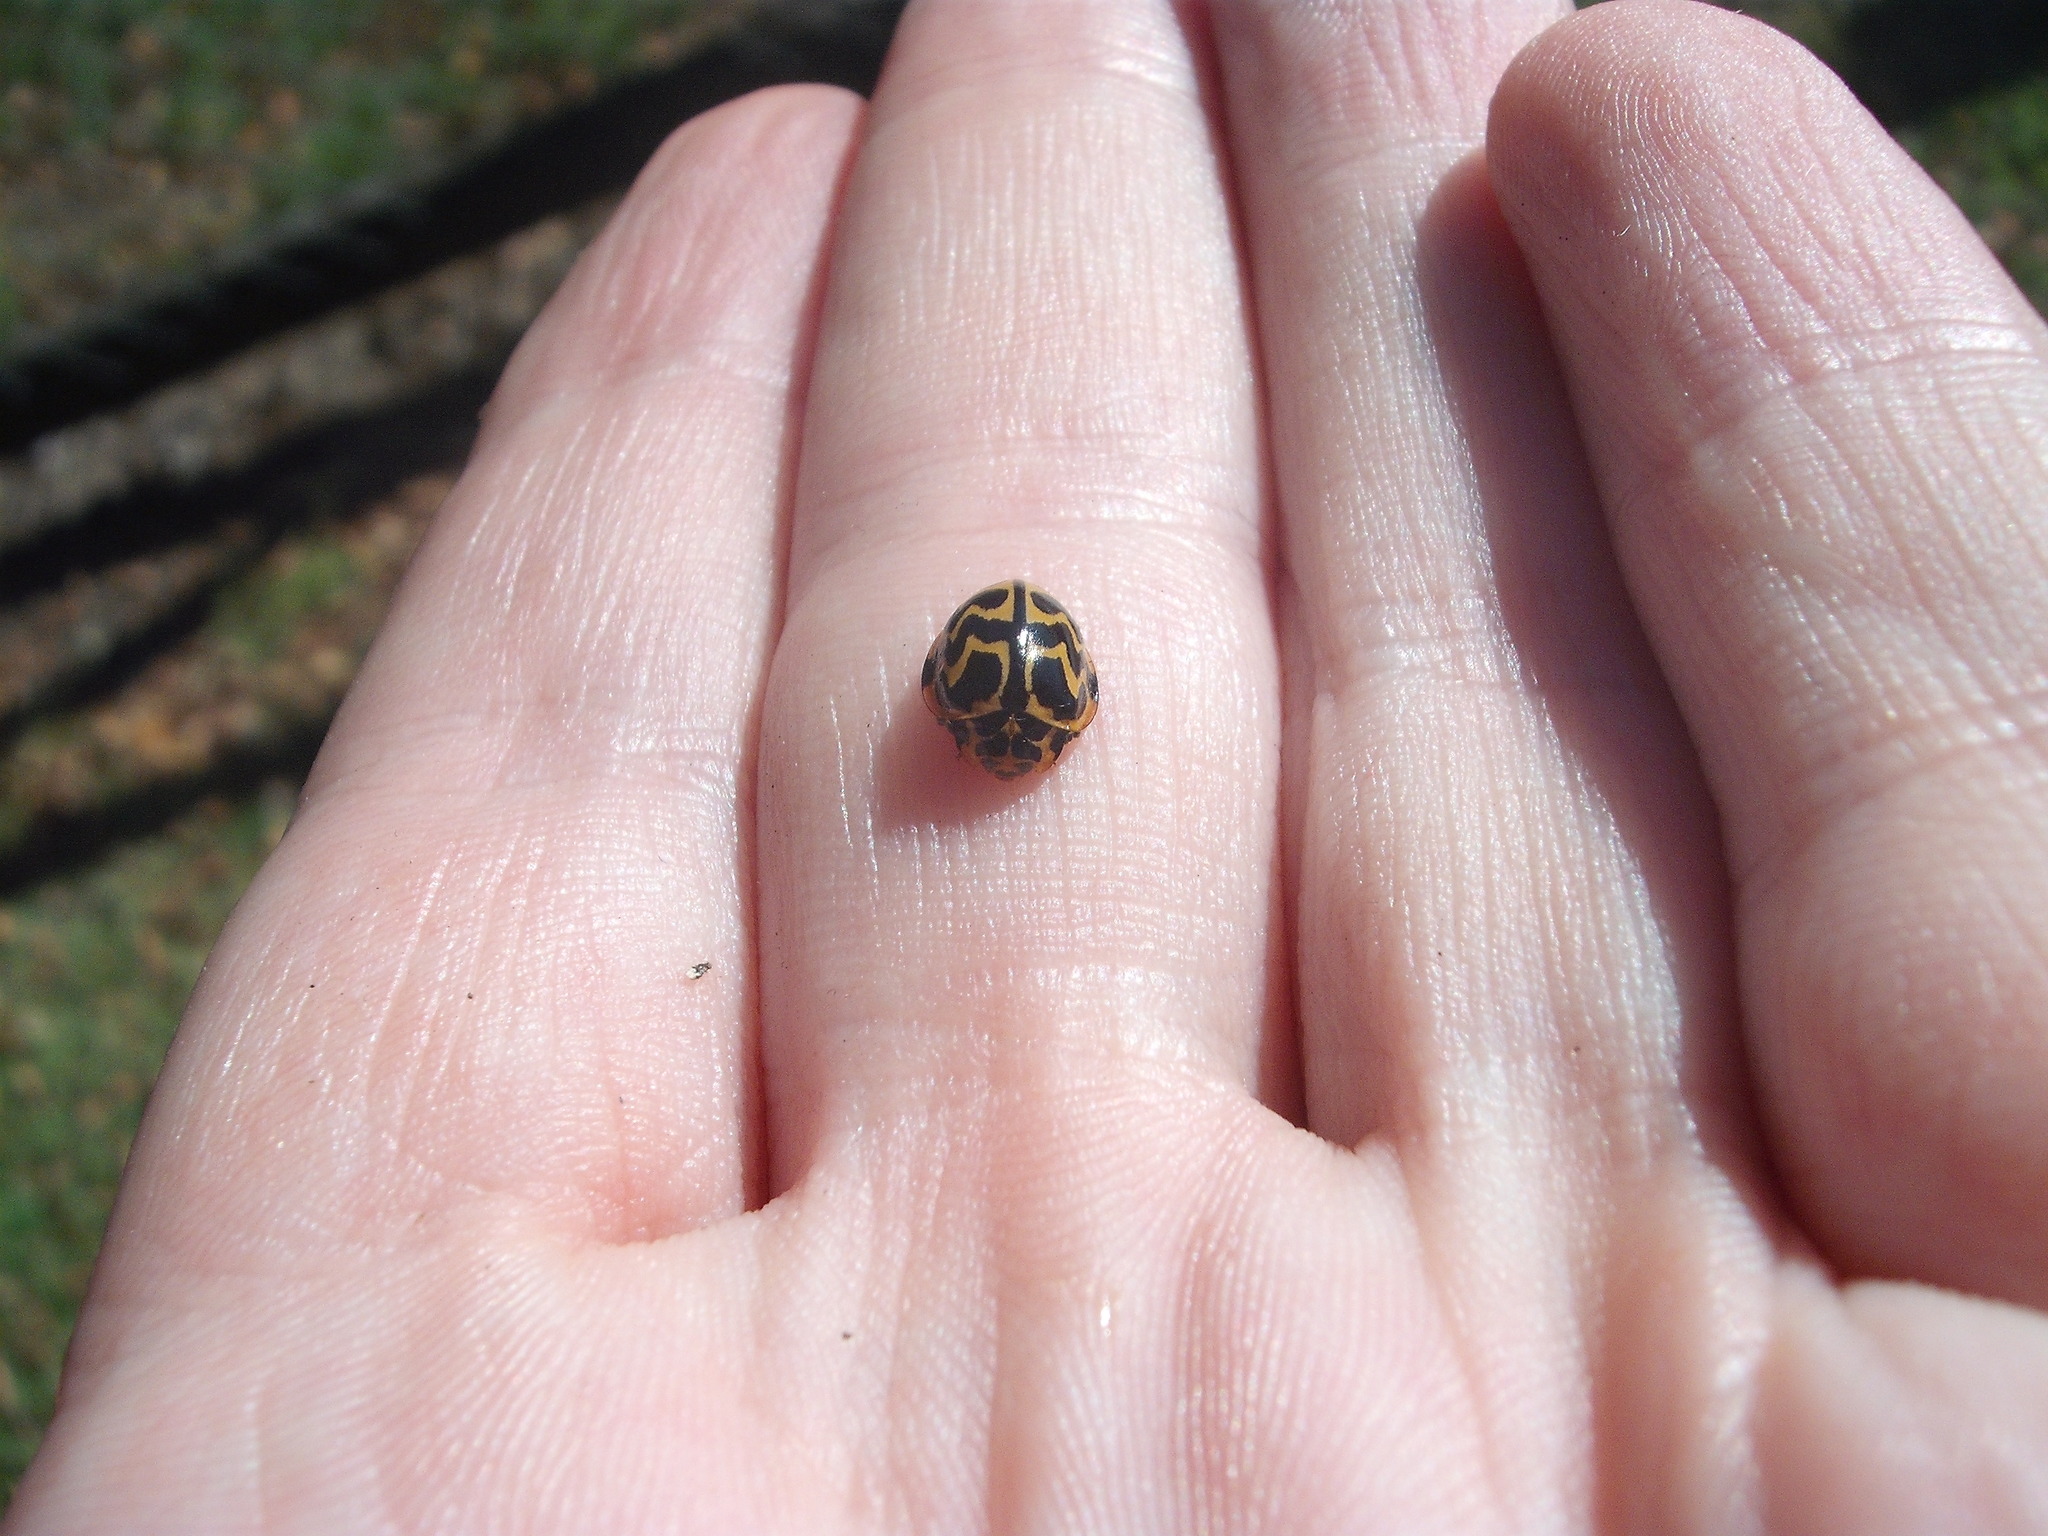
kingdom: Animalia
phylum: Arthropoda
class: Insecta
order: Coleoptera
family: Coccinellidae
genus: Cleobora
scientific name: Cleobora
